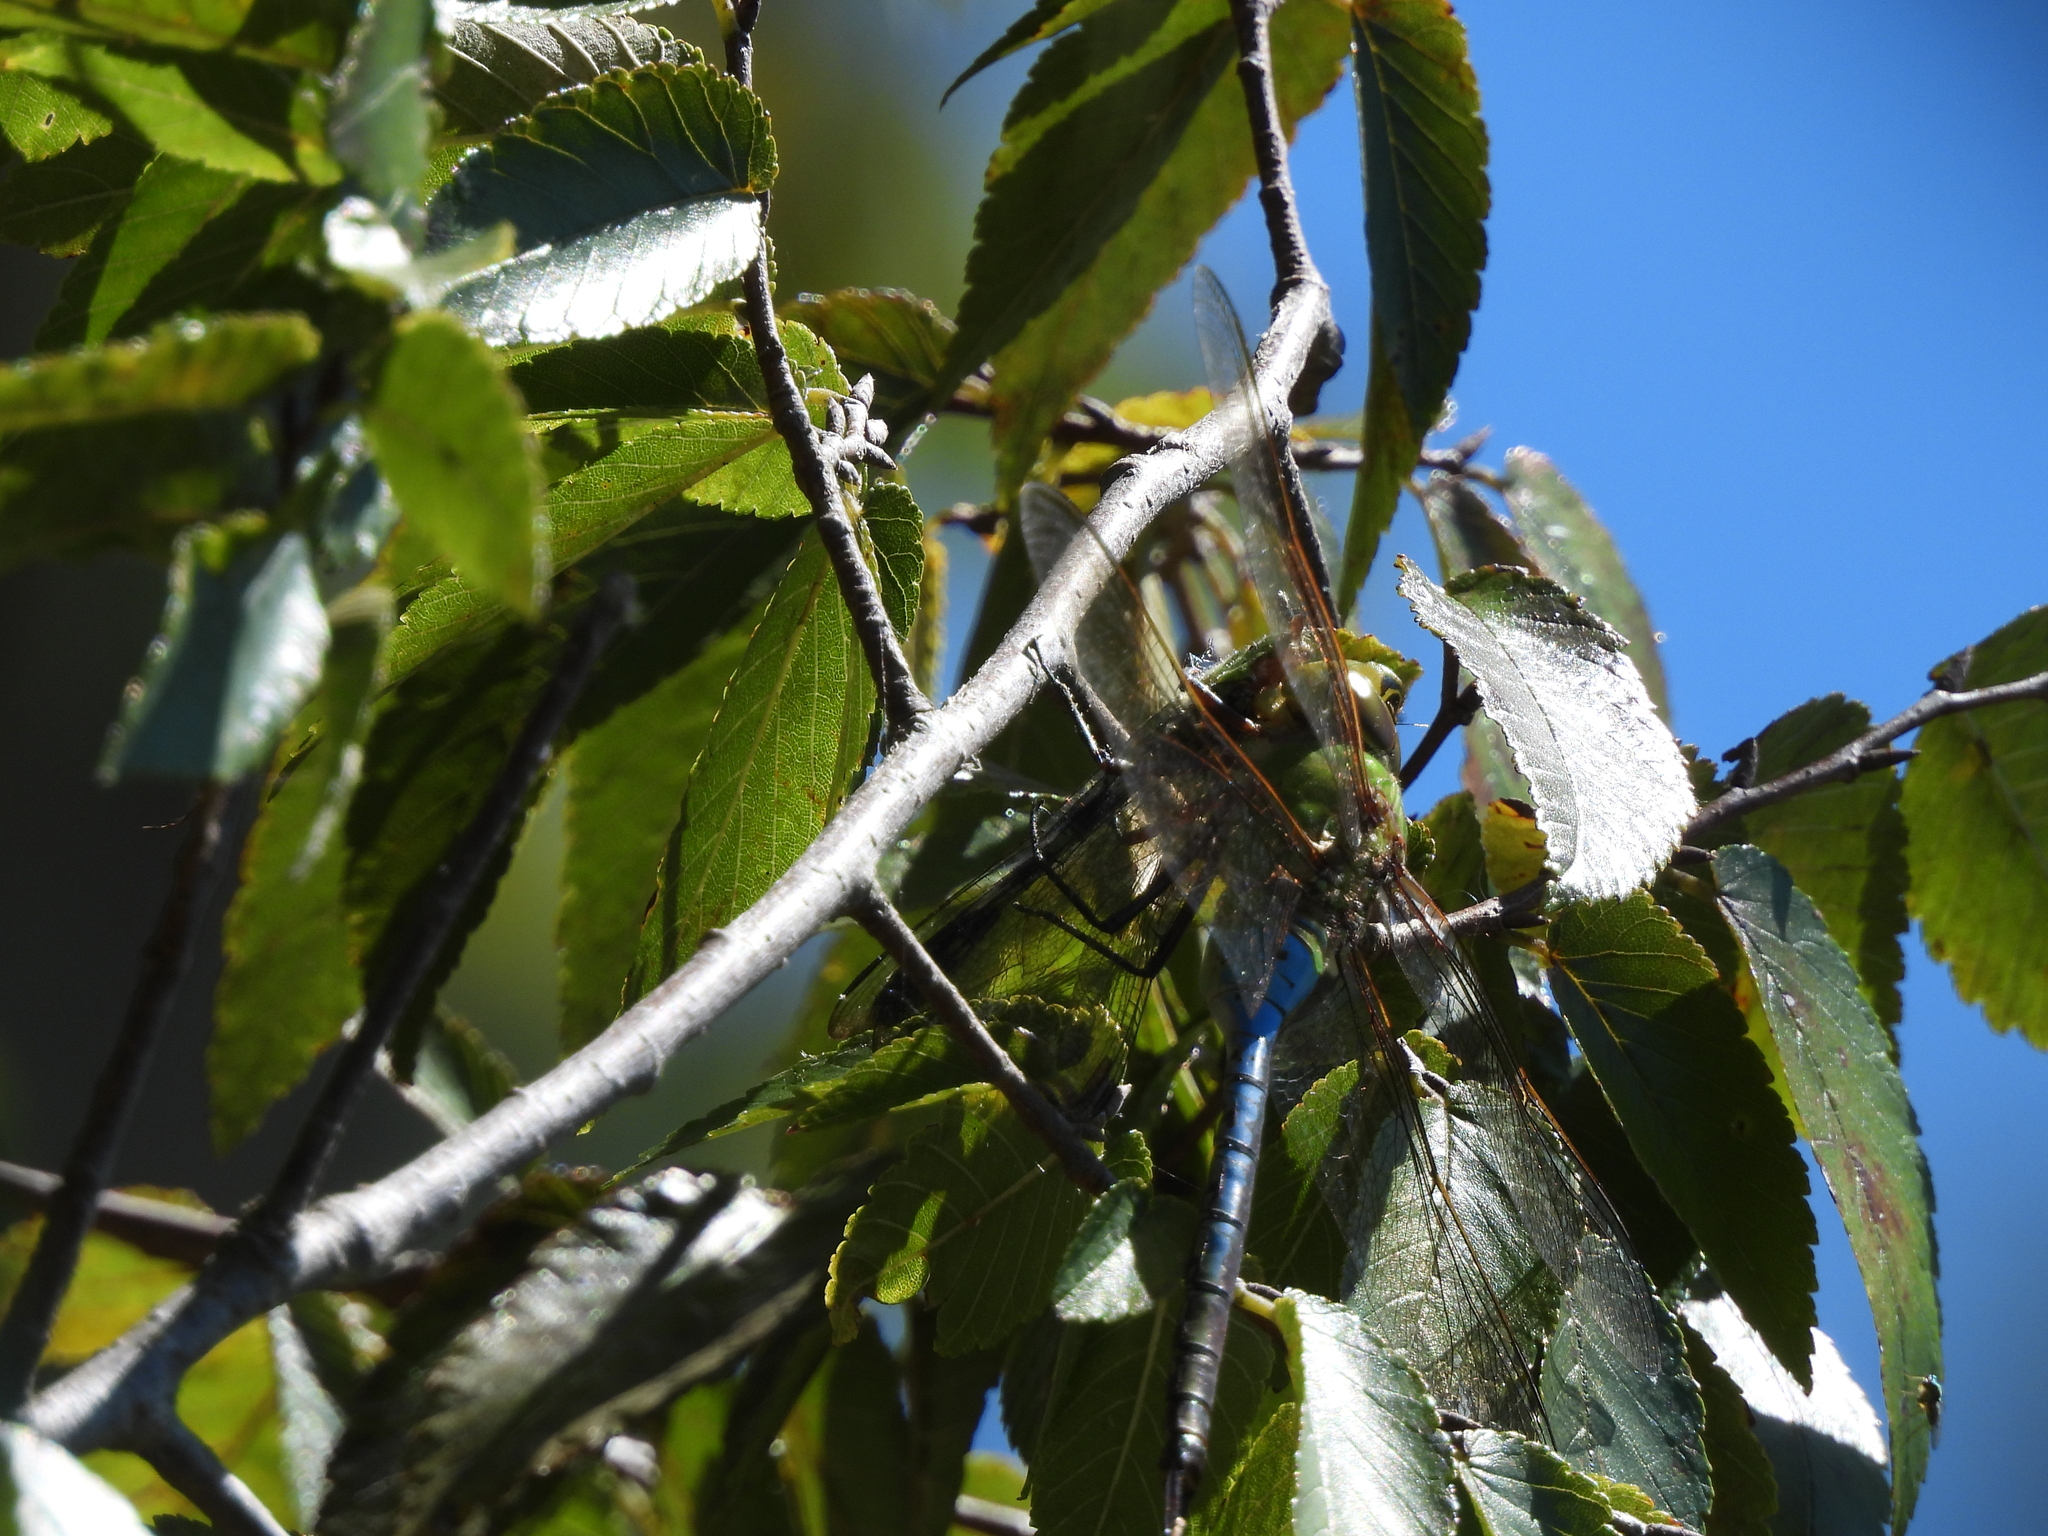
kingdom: Animalia
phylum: Arthropoda
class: Insecta
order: Odonata
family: Aeshnidae
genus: Anax
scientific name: Anax junius
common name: Common green darner
